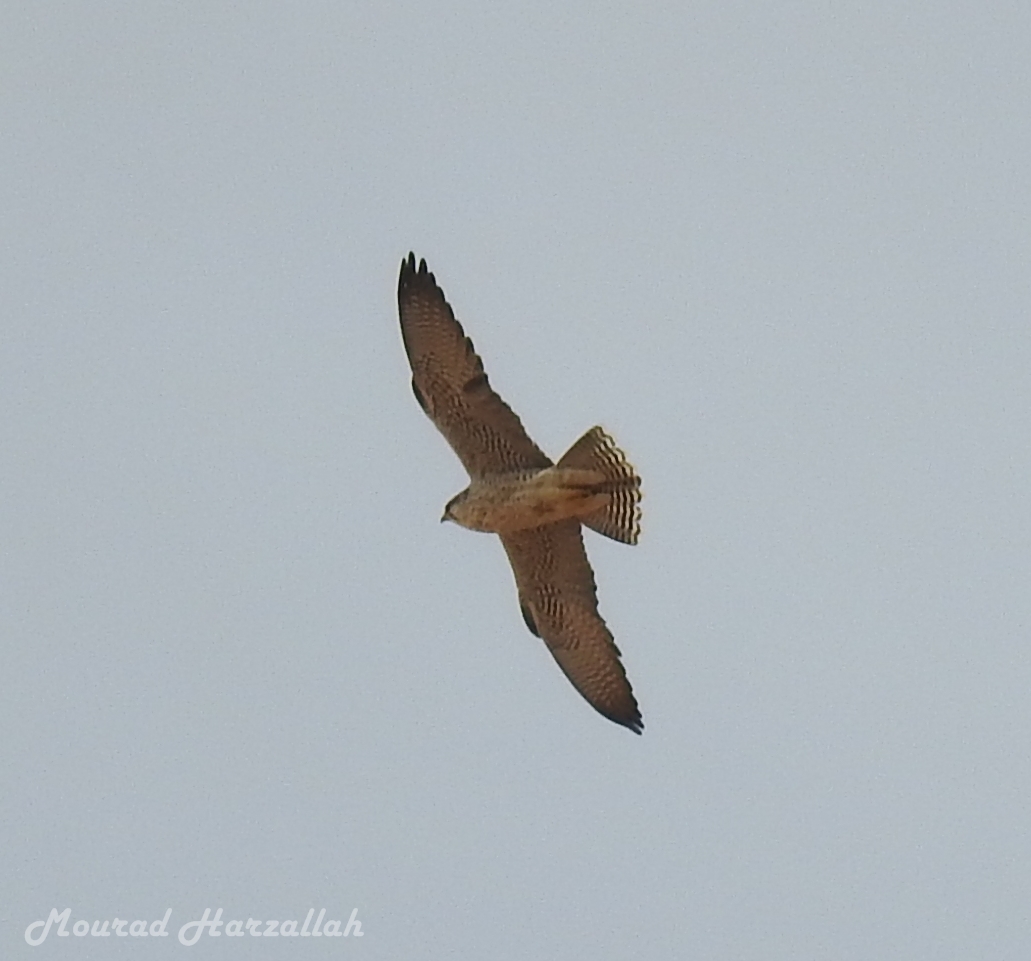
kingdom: Animalia
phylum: Chordata
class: Aves
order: Falconiformes
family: Falconidae
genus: Falco
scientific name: Falco biarmicus
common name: Lanner falcon
